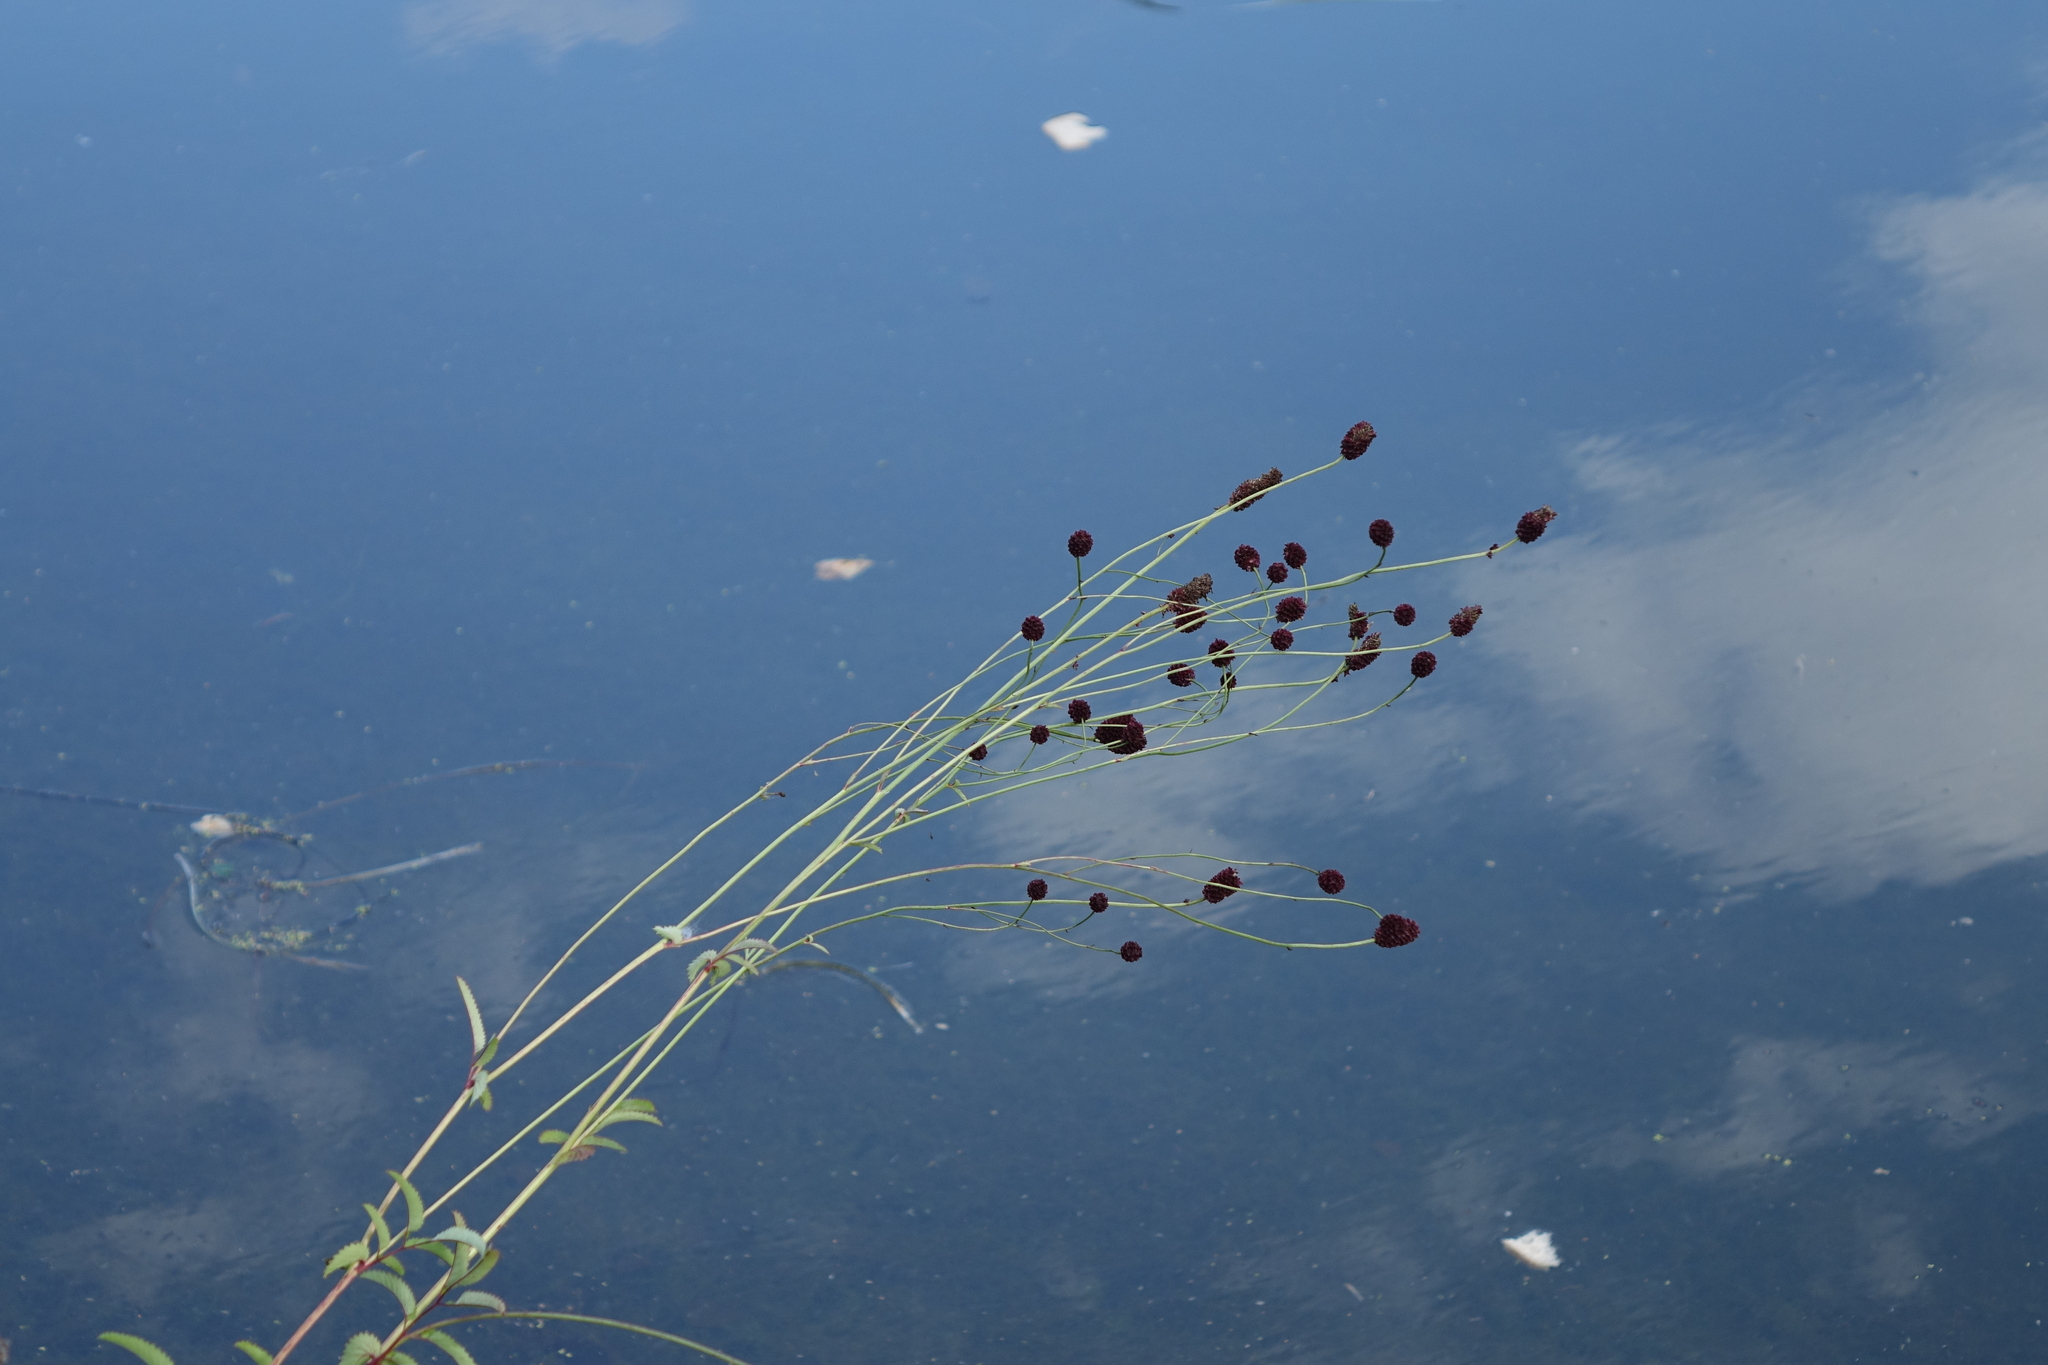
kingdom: Plantae
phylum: Tracheophyta
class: Magnoliopsida
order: Rosales
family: Rosaceae
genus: Sanguisorba
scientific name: Sanguisorba officinalis
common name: Great burnet
